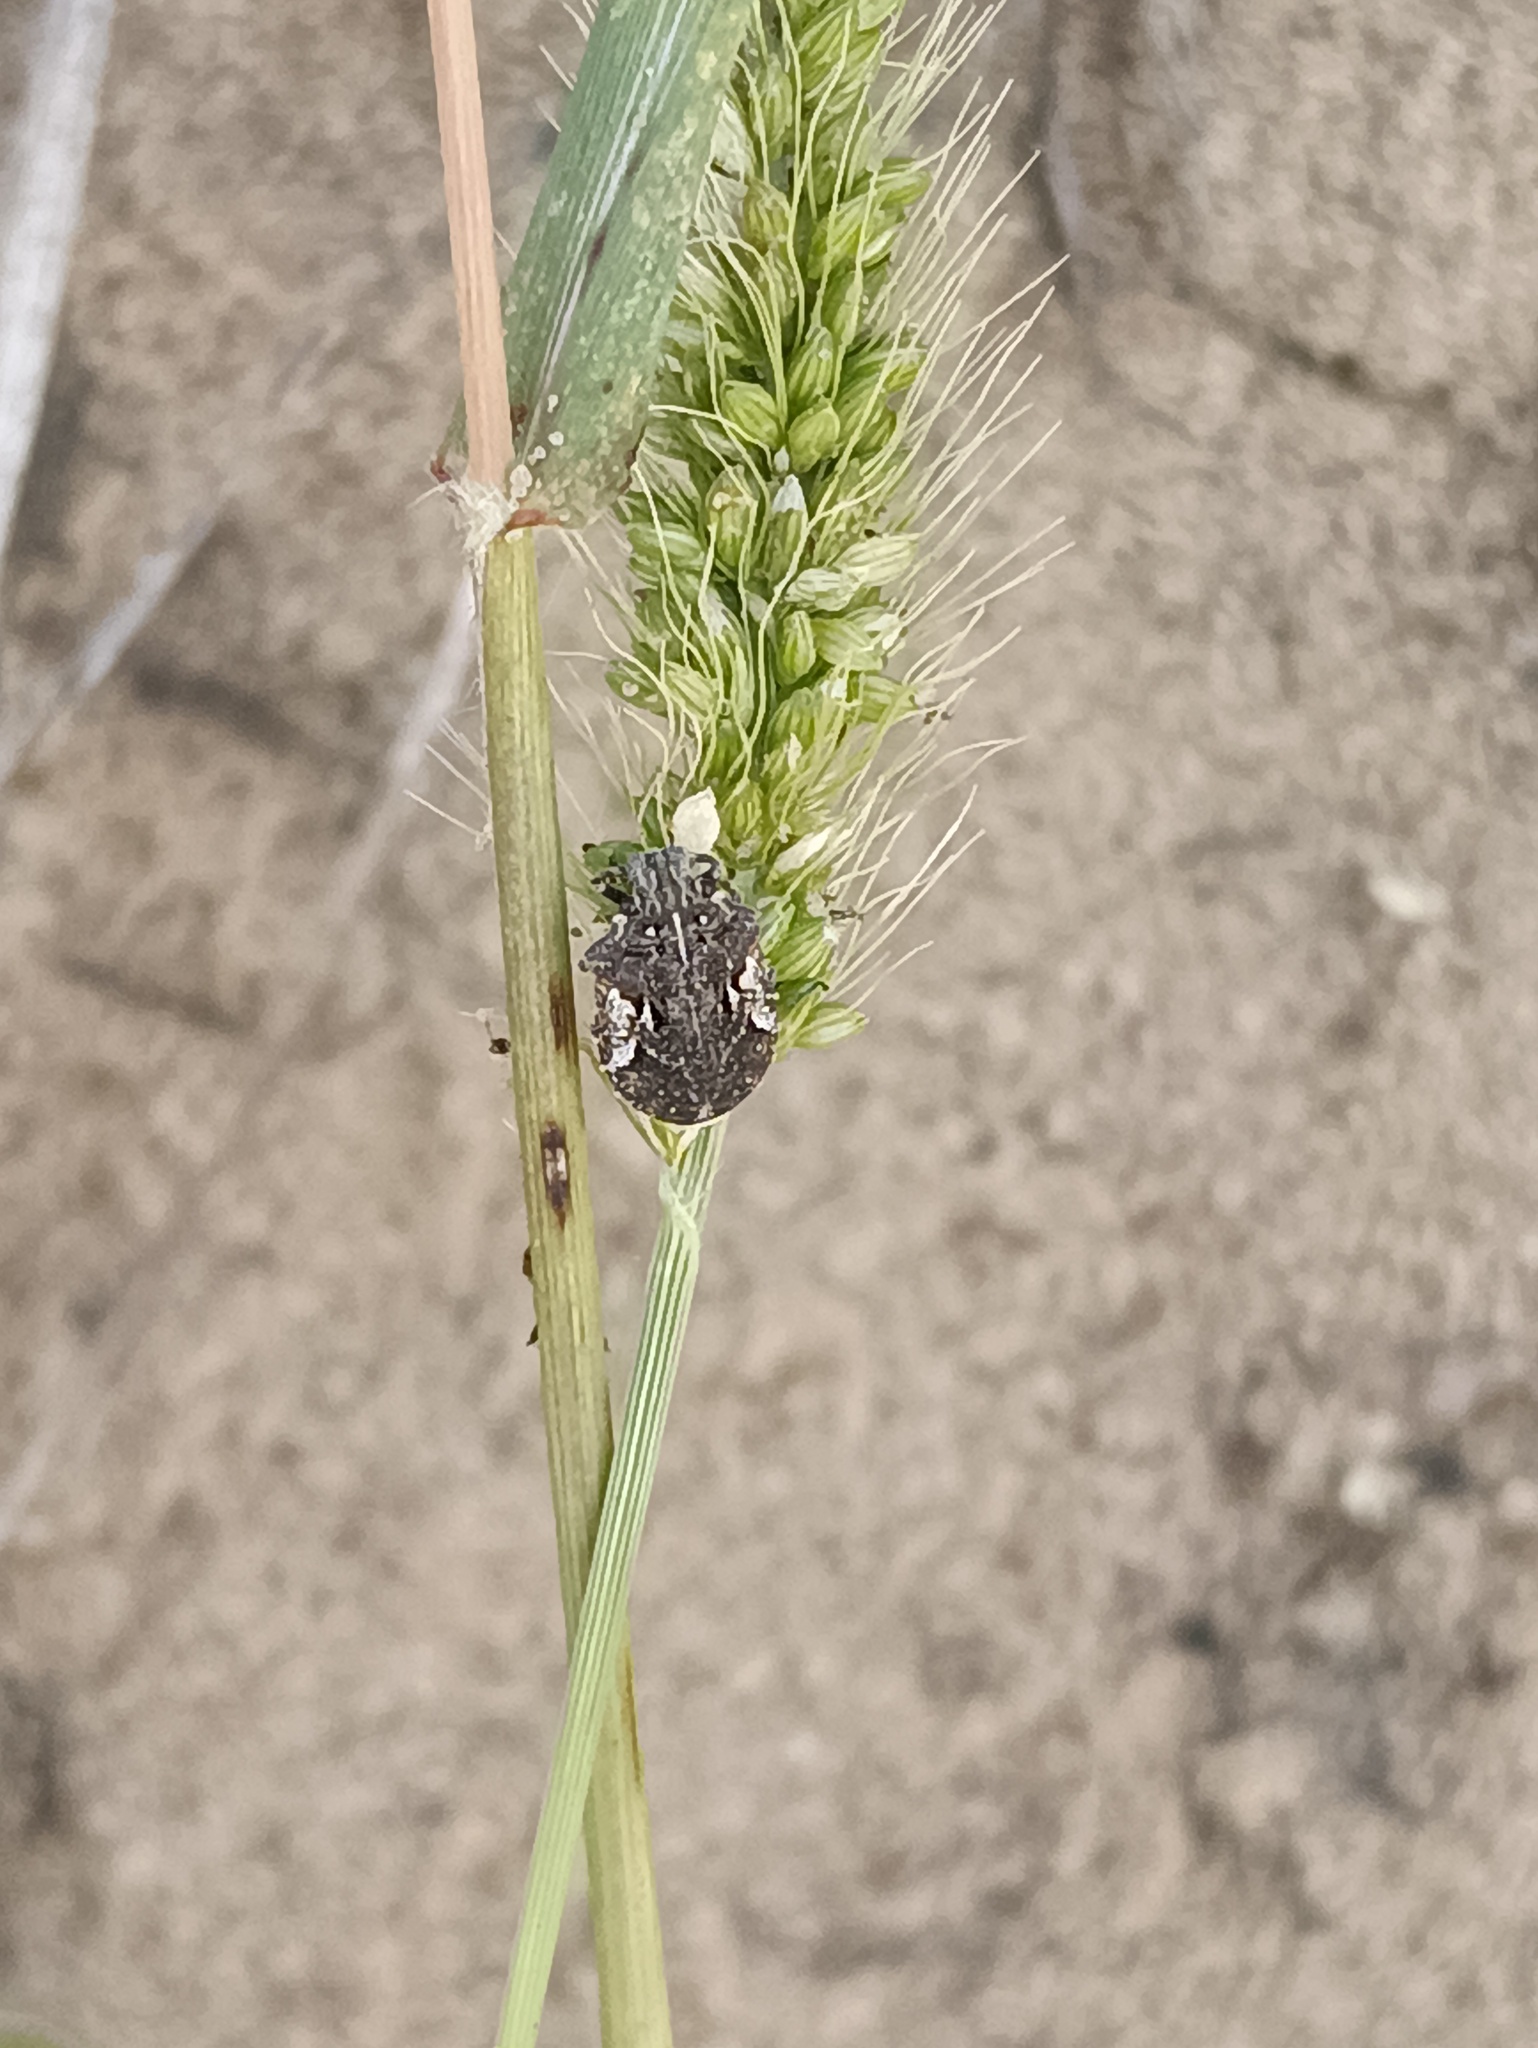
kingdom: Animalia
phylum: Arthropoda
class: Insecta
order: Hemiptera
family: Scutelleridae
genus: Phimodera
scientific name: Phimodera humeralis
